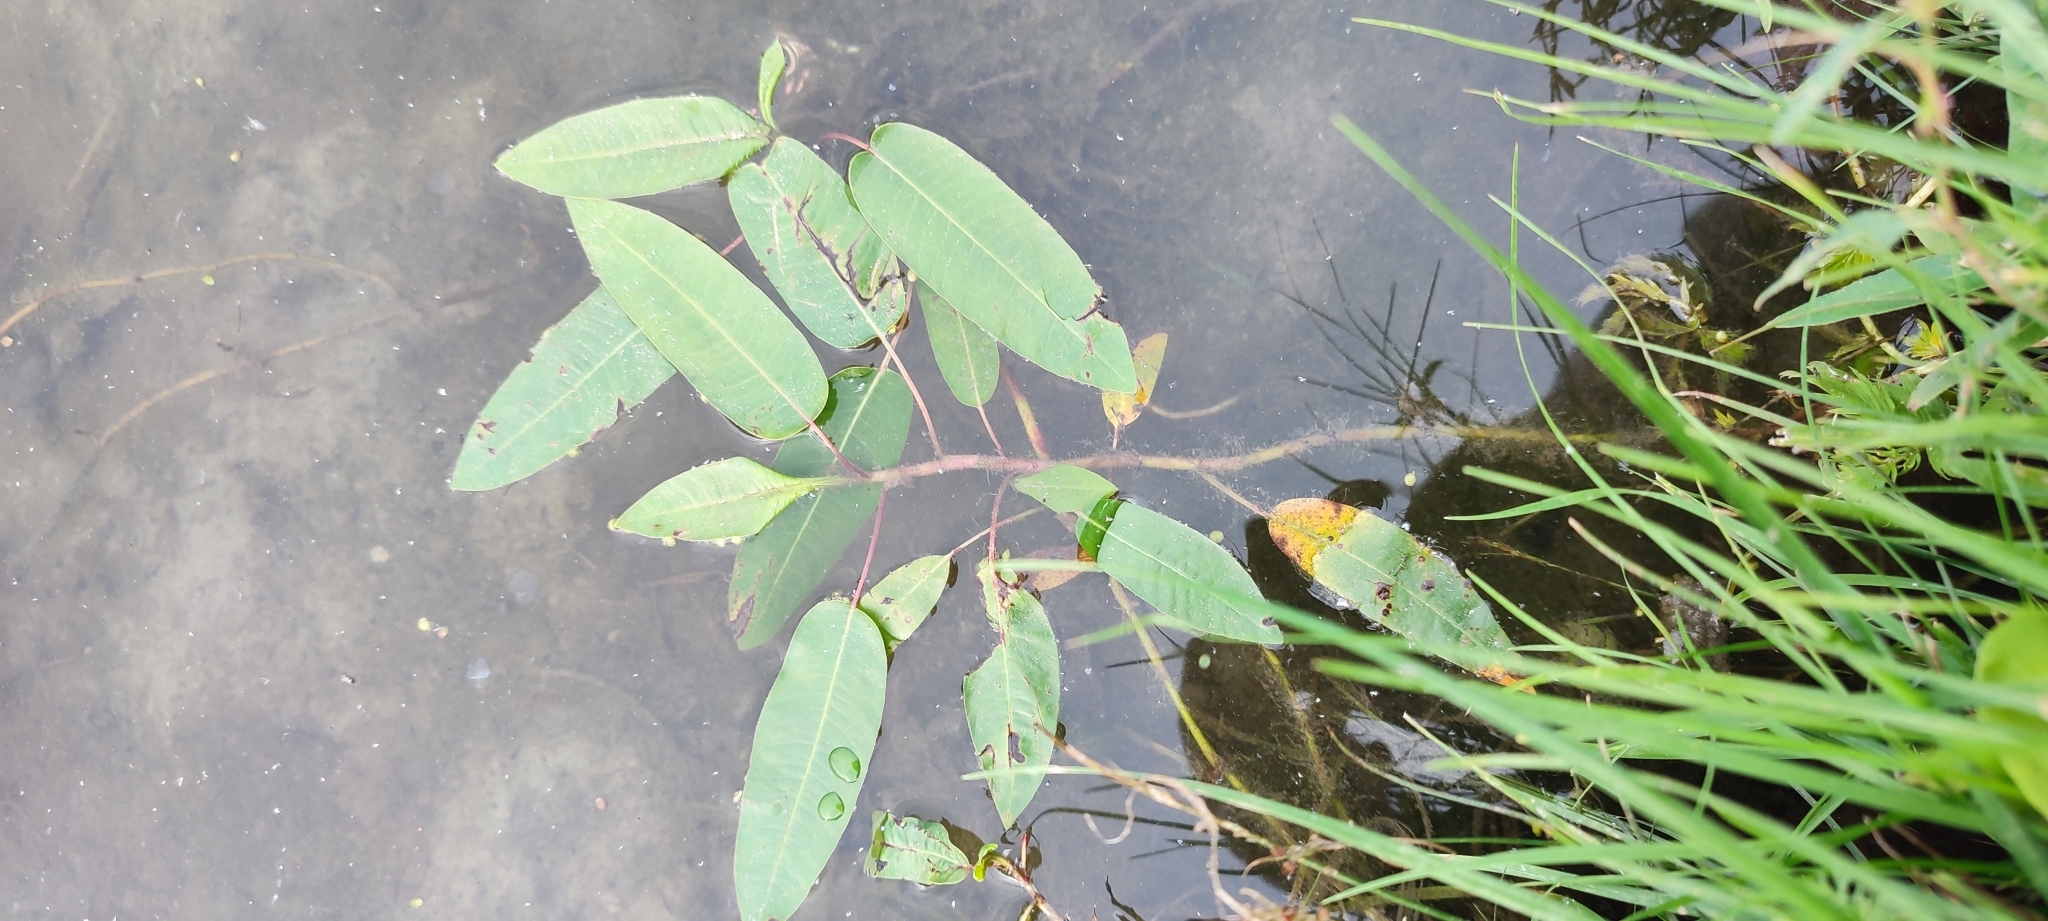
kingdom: Plantae
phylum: Tracheophyta
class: Magnoliopsida
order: Caryophyllales
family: Polygonaceae
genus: Persicaria
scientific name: Persicaria amphibia
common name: Amphibious bistort
